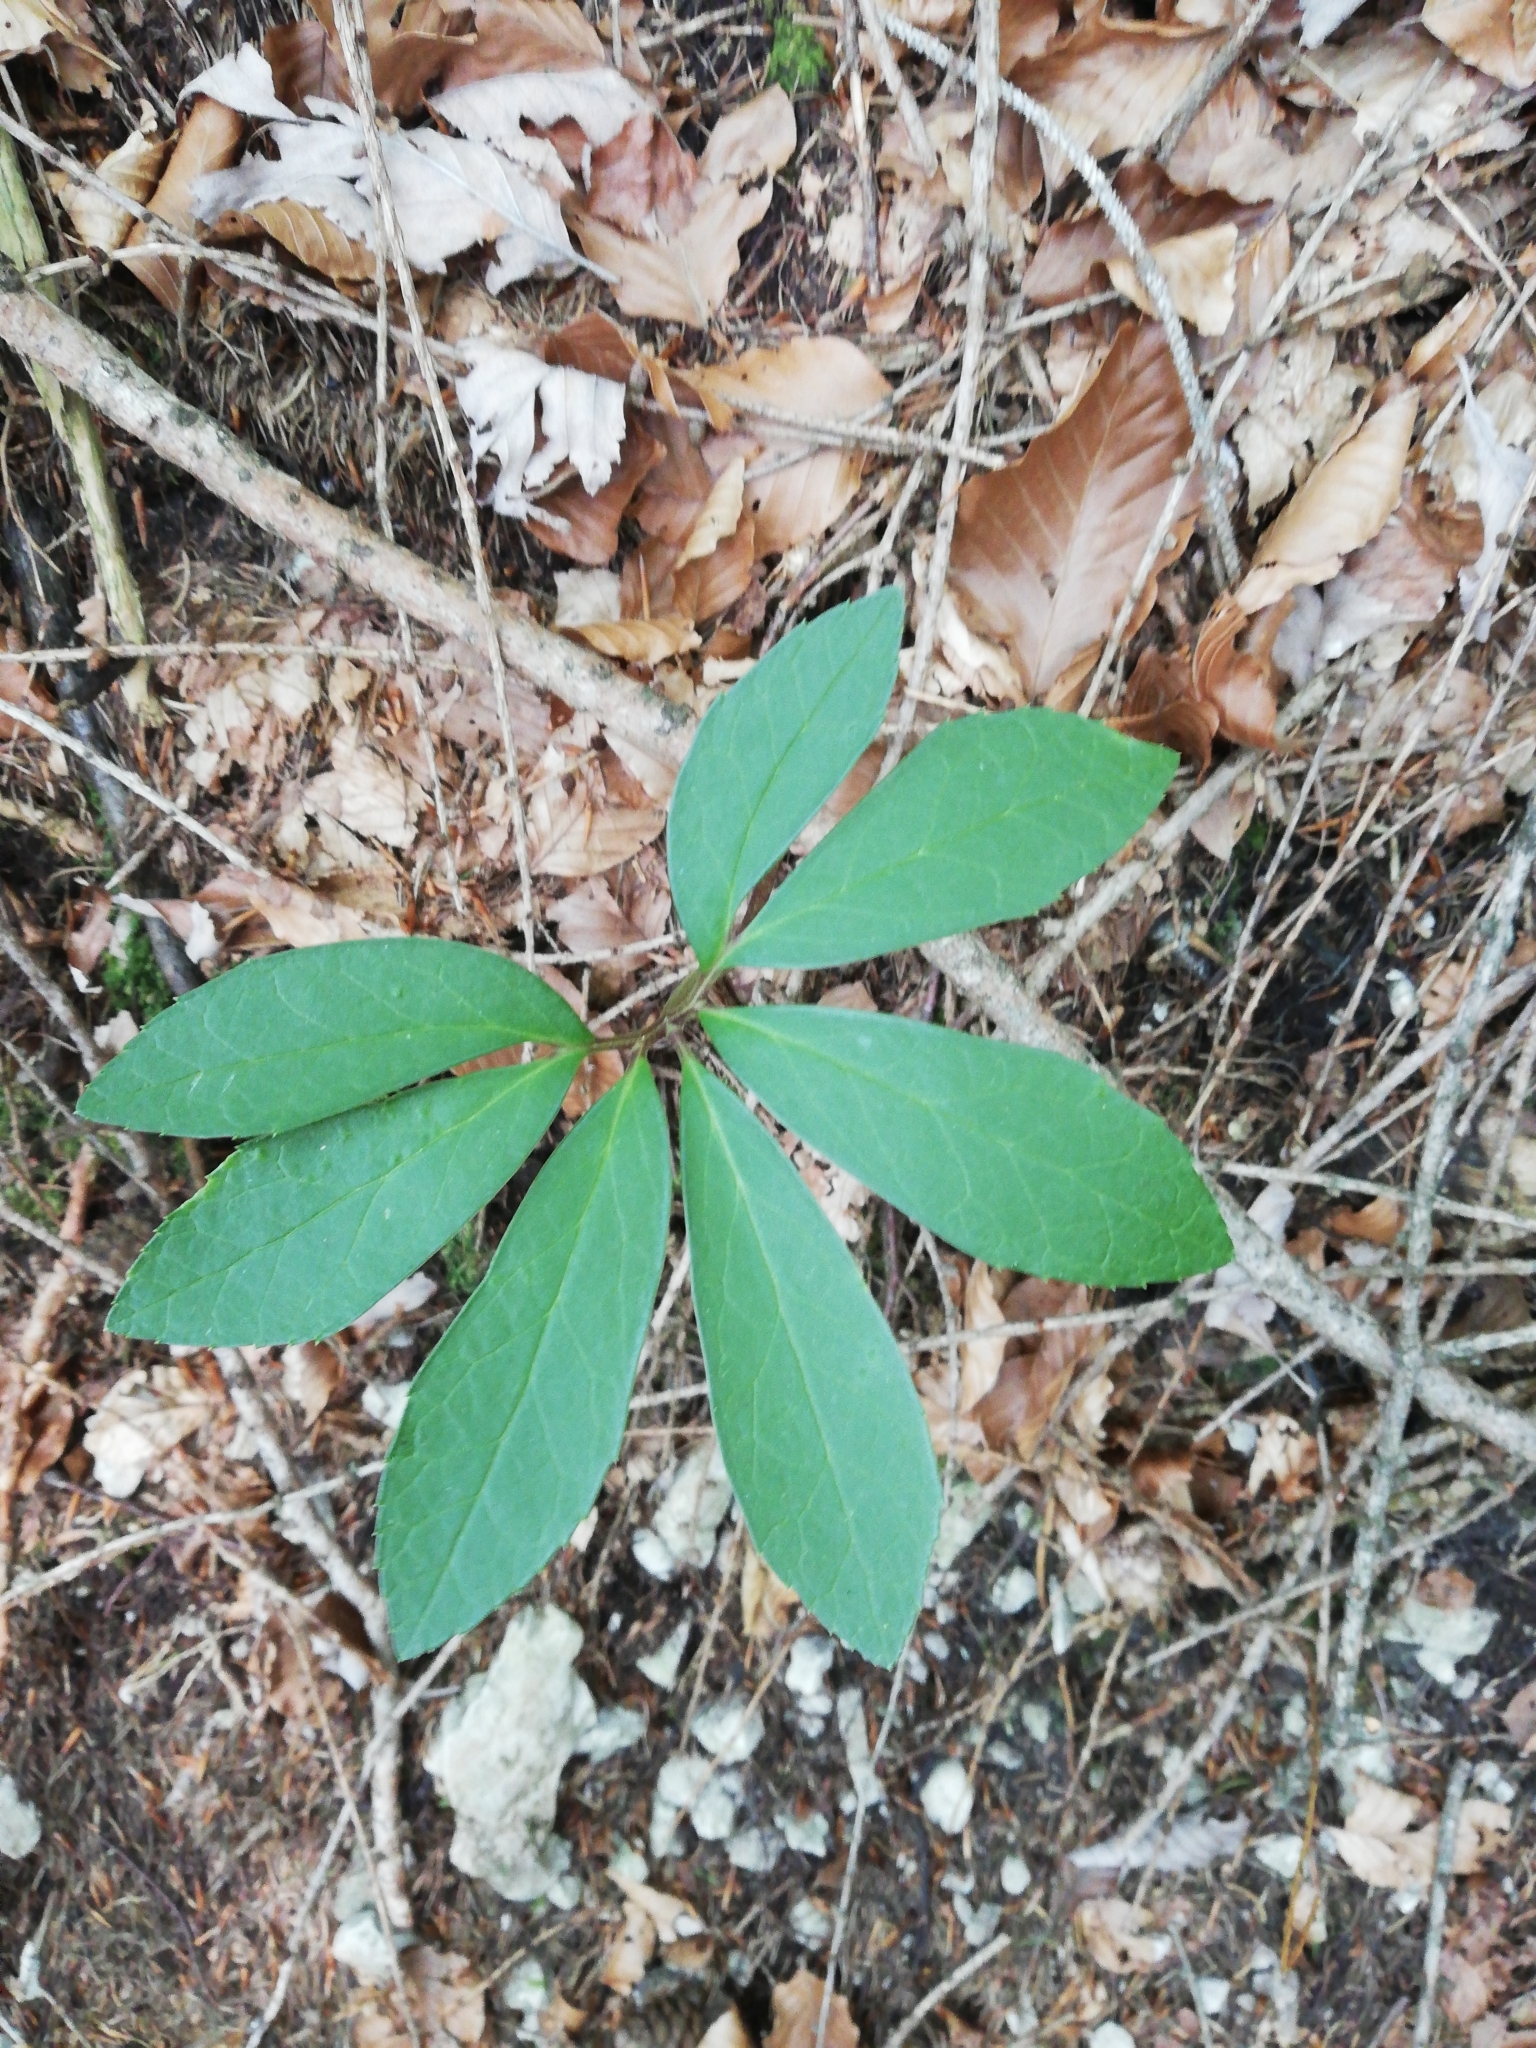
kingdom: Plantae
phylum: Tracheophyta
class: Magnoliopsida
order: Ranunculales
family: Ranunculaceae
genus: Helleborus
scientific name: Helleborus niger
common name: Black hellebore
